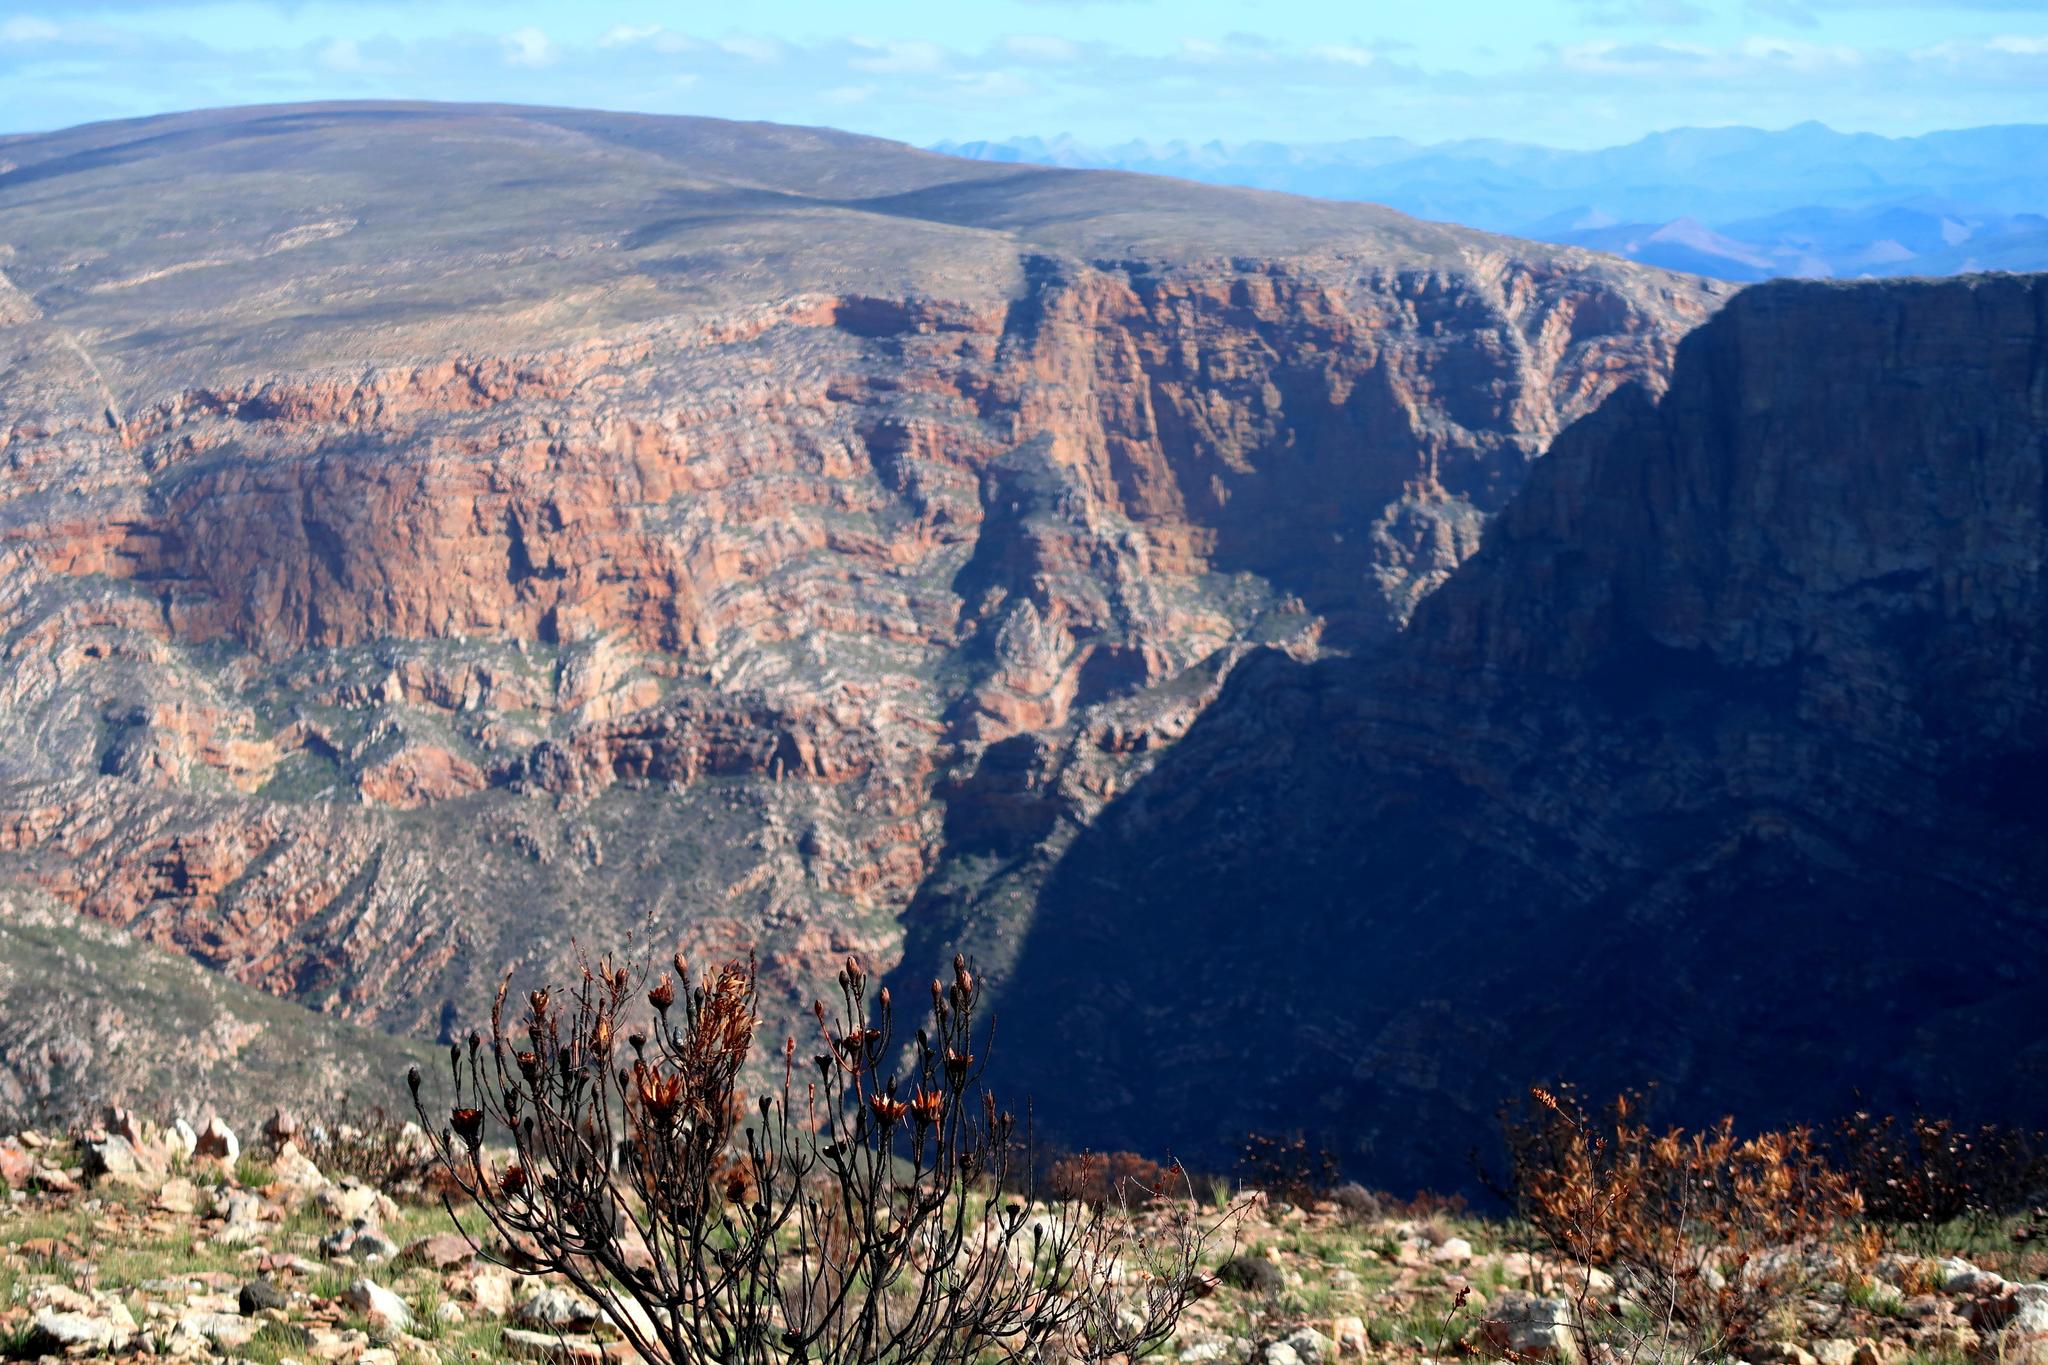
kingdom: Plantae
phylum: Tracheophyta
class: Magnoliopsida
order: Proteales
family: Proteaceae
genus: Protea
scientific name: Protea lorifolia
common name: Strap-leaved protea
